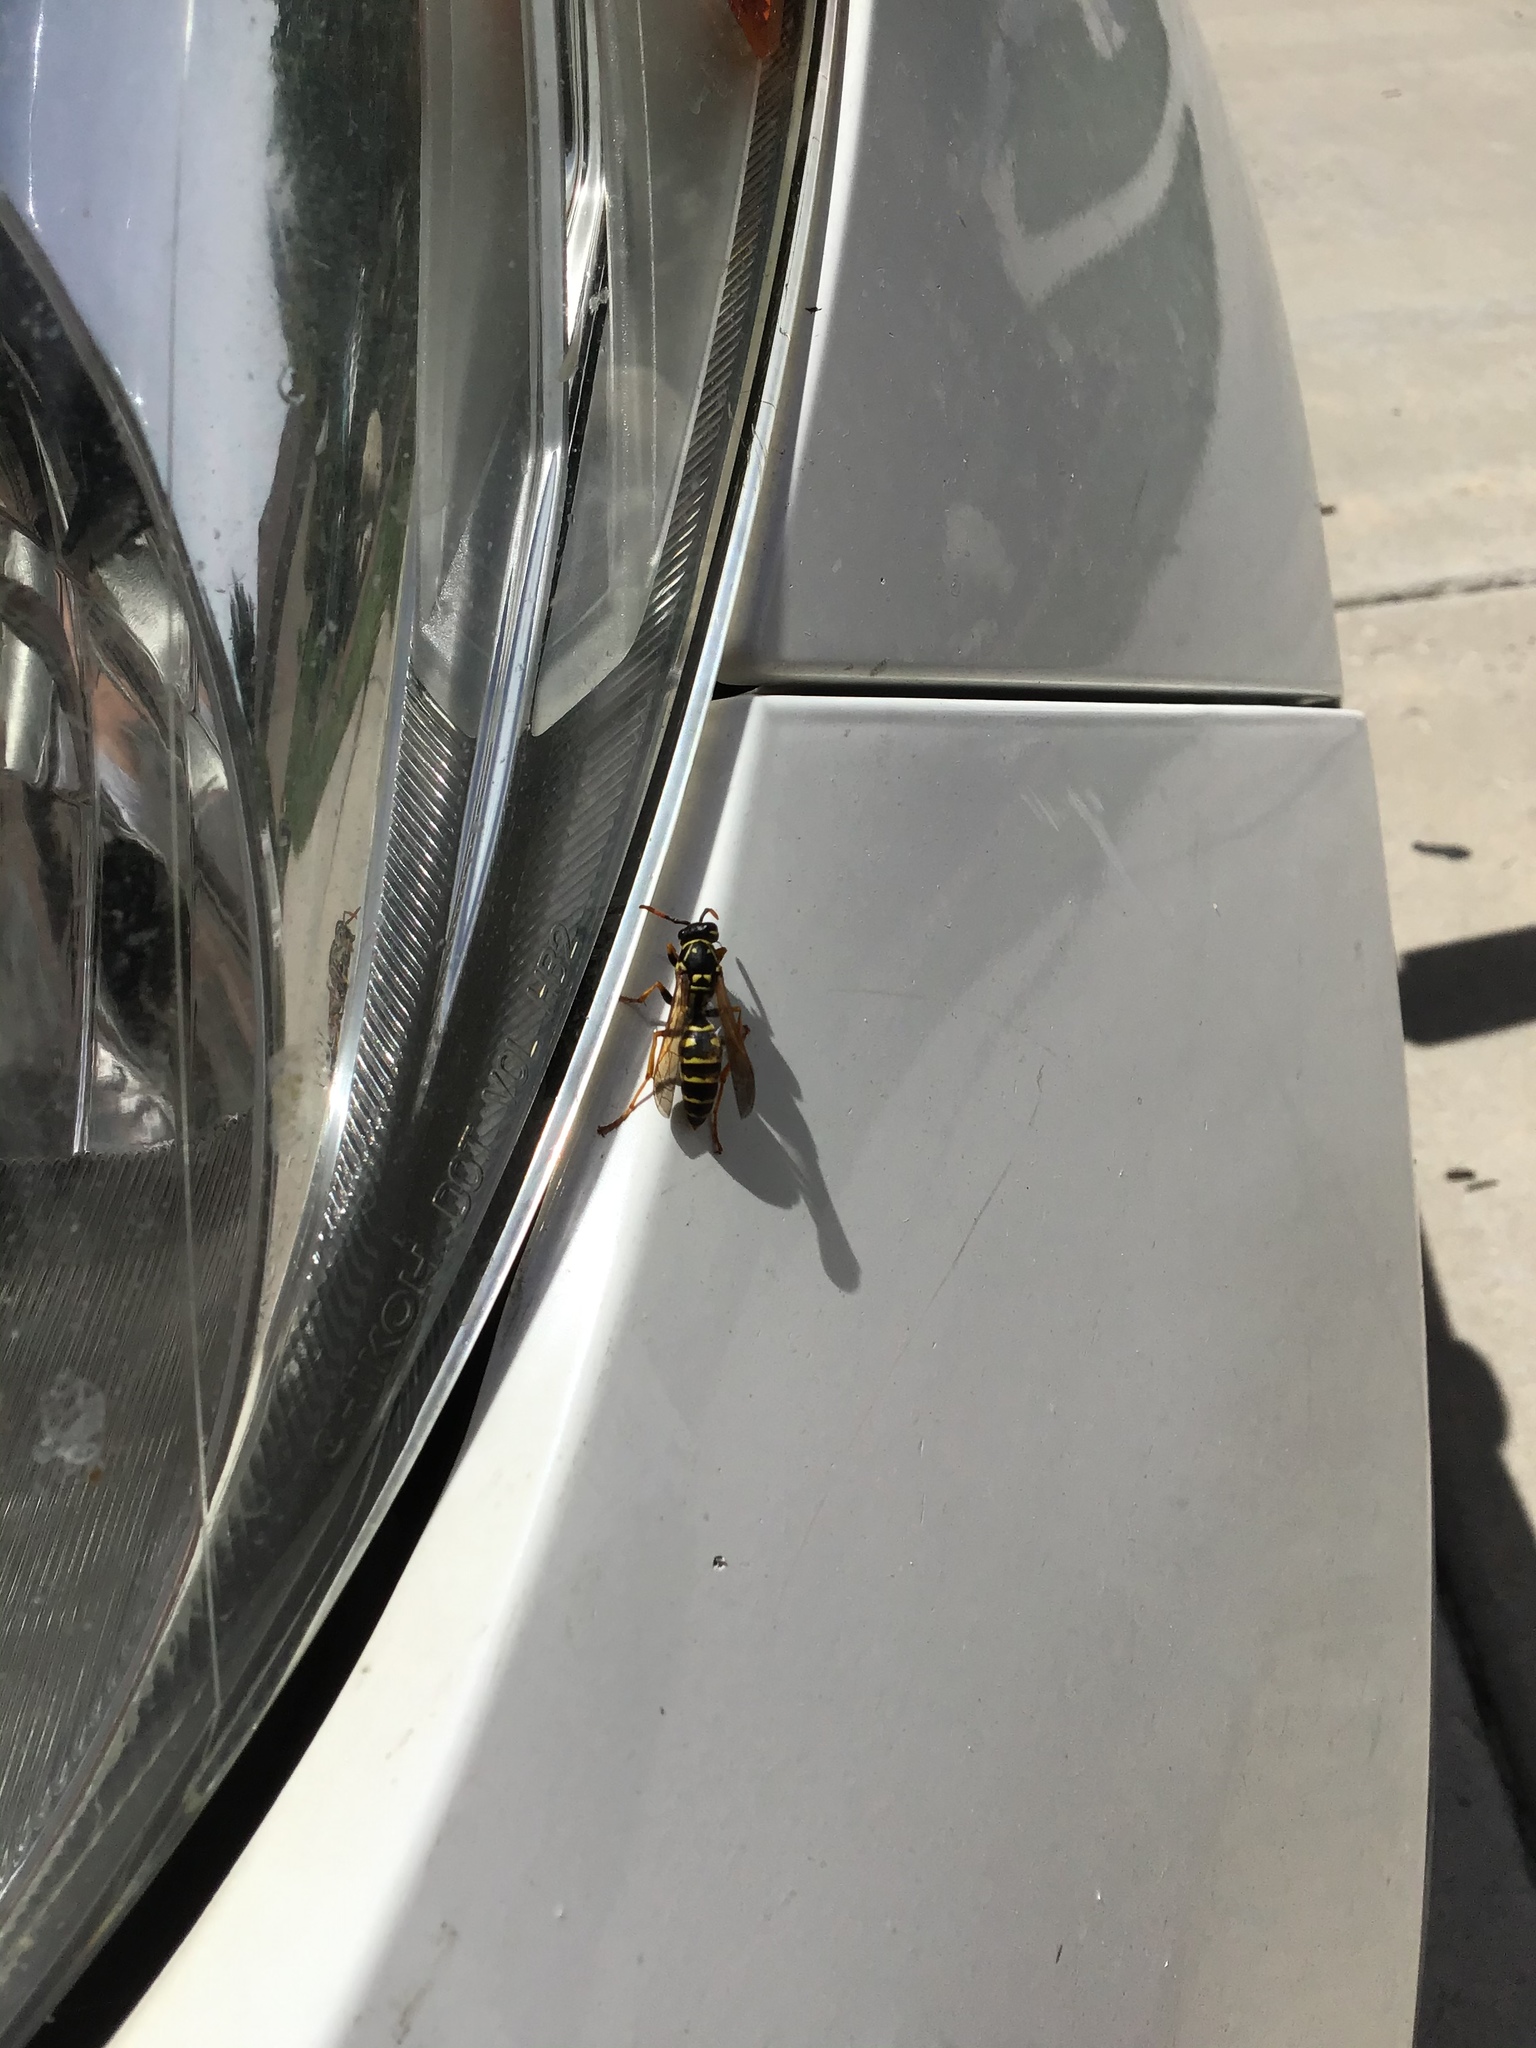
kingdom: Animalia
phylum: Arthropoda
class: Insecta
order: Hymenoptera
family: Eumenidae
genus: Polistes
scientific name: Polistes dominula
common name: Paper wasp
